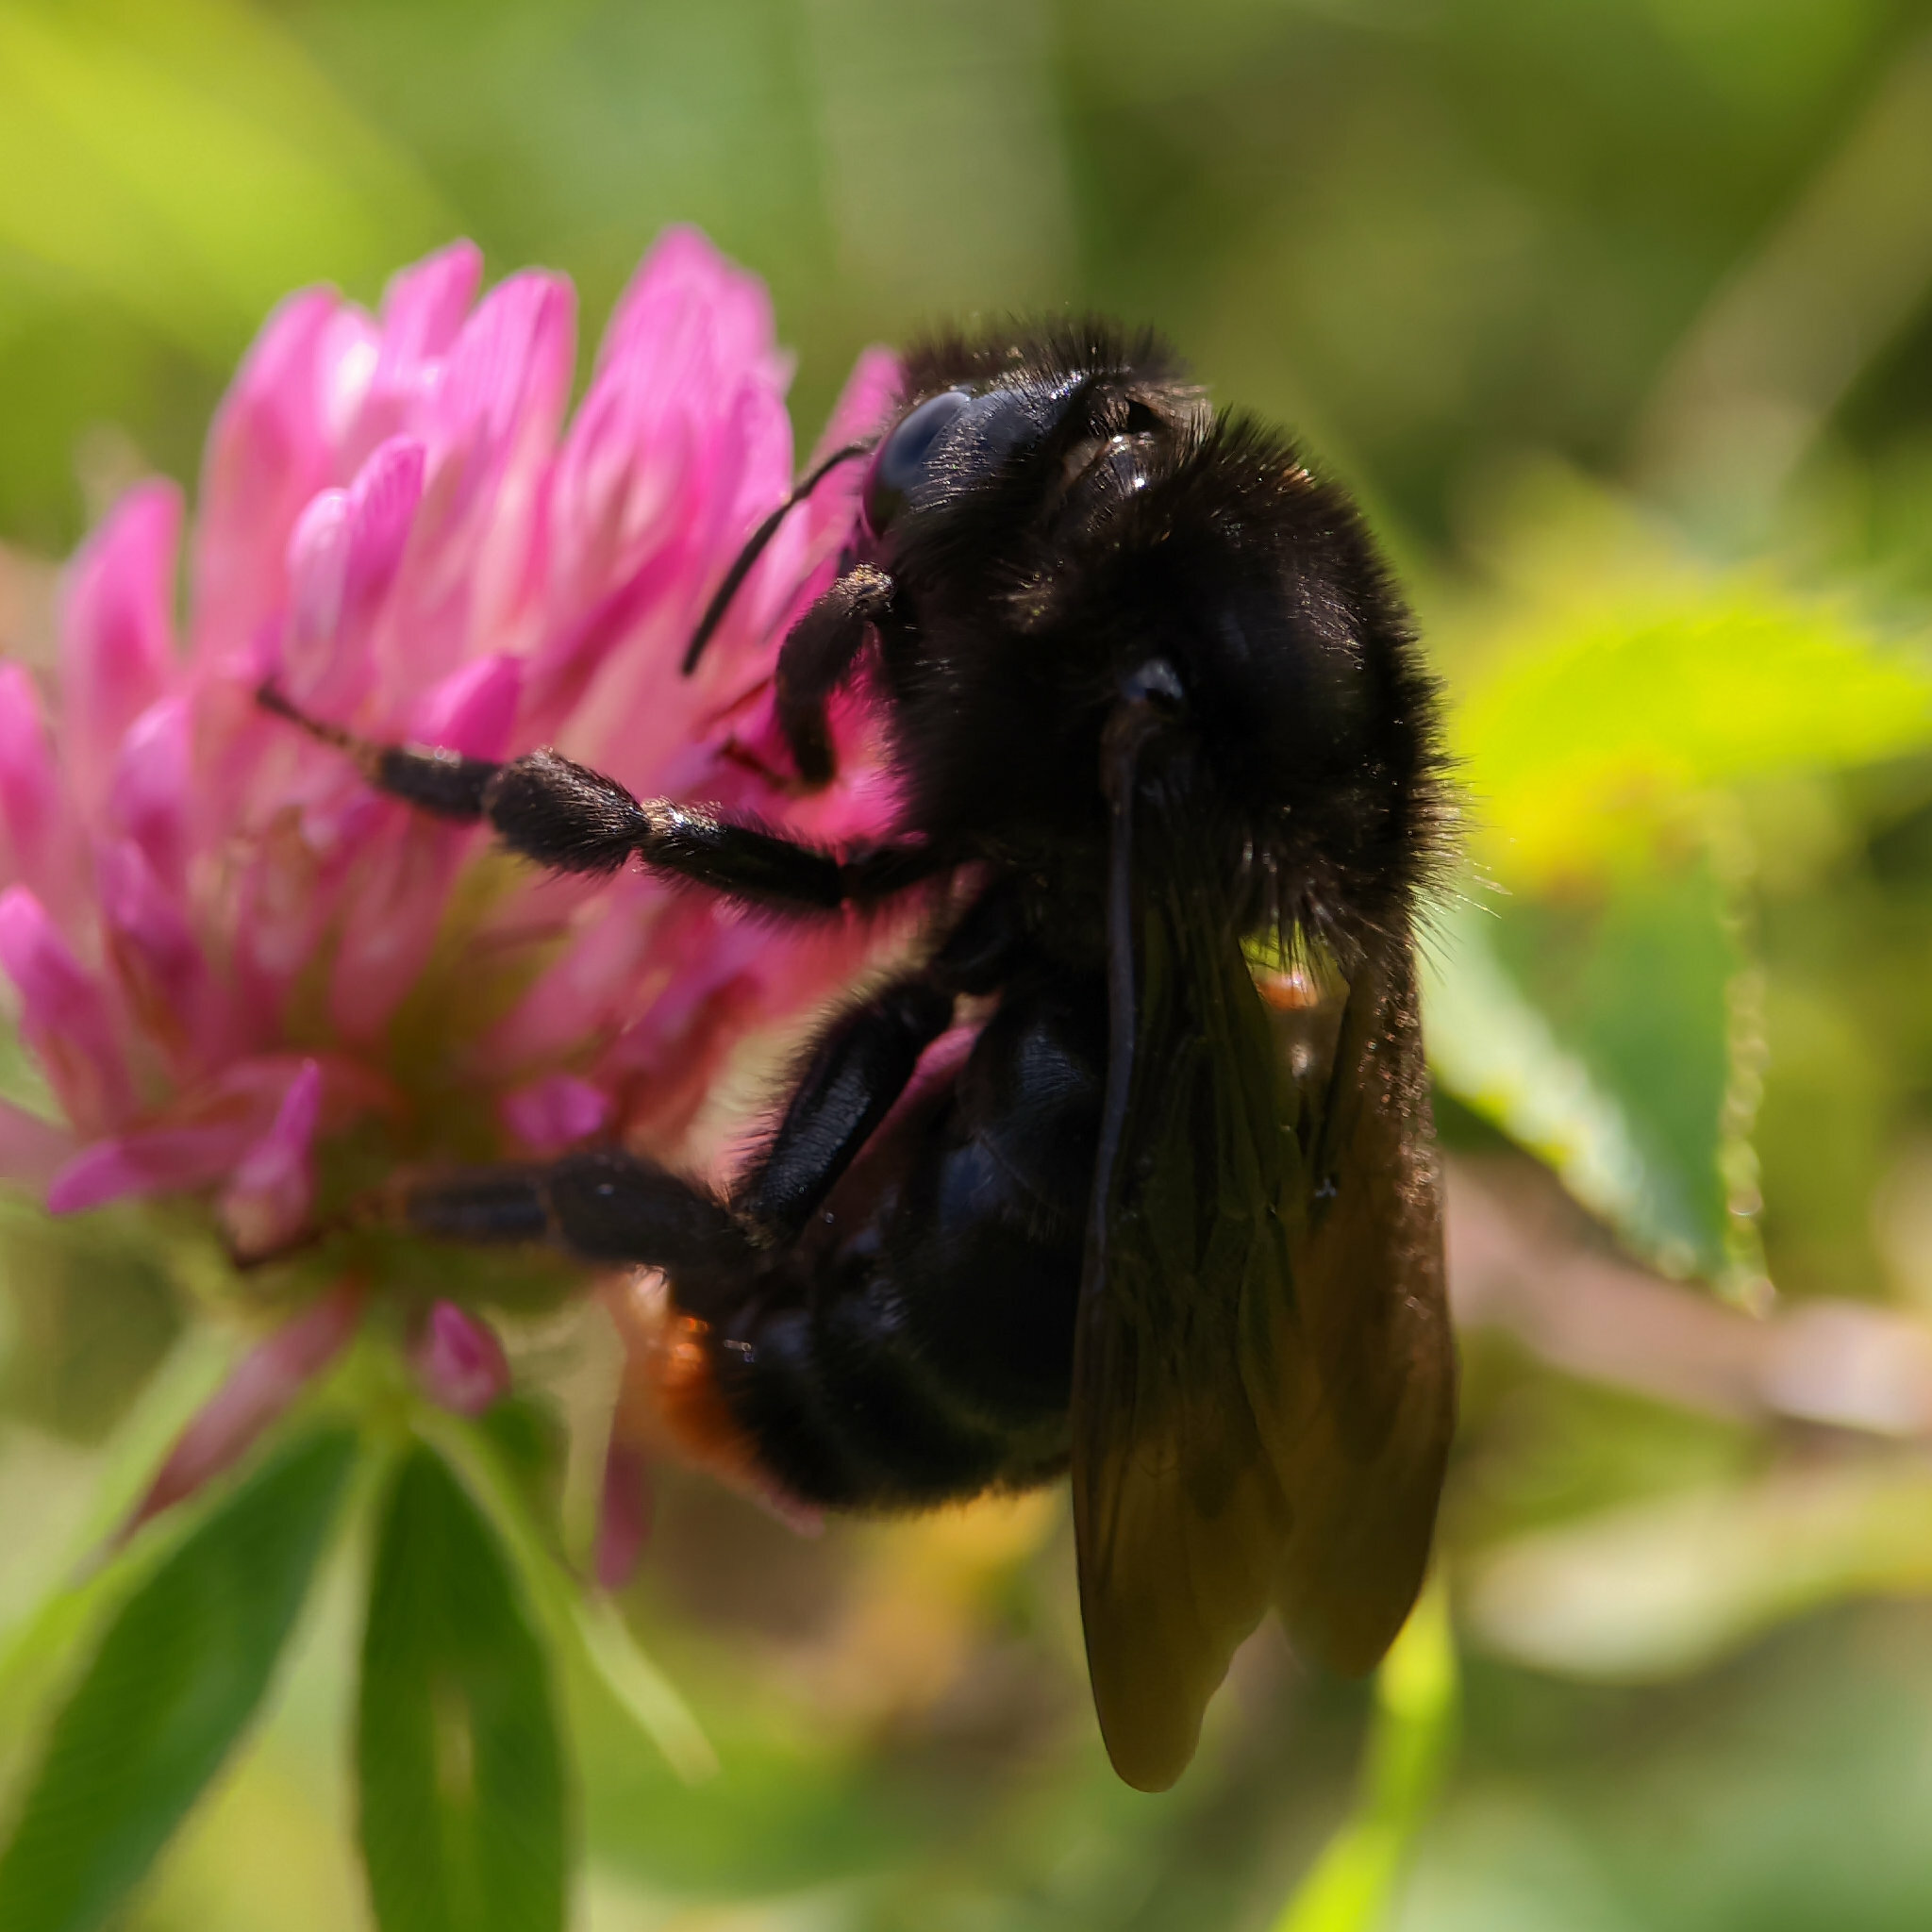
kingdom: Animalia
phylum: Arthropoda
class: Insecta
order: Hymenoptera
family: Apidae
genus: Bombus
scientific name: Bombus rupestris
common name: Hill cuckoo-bee
